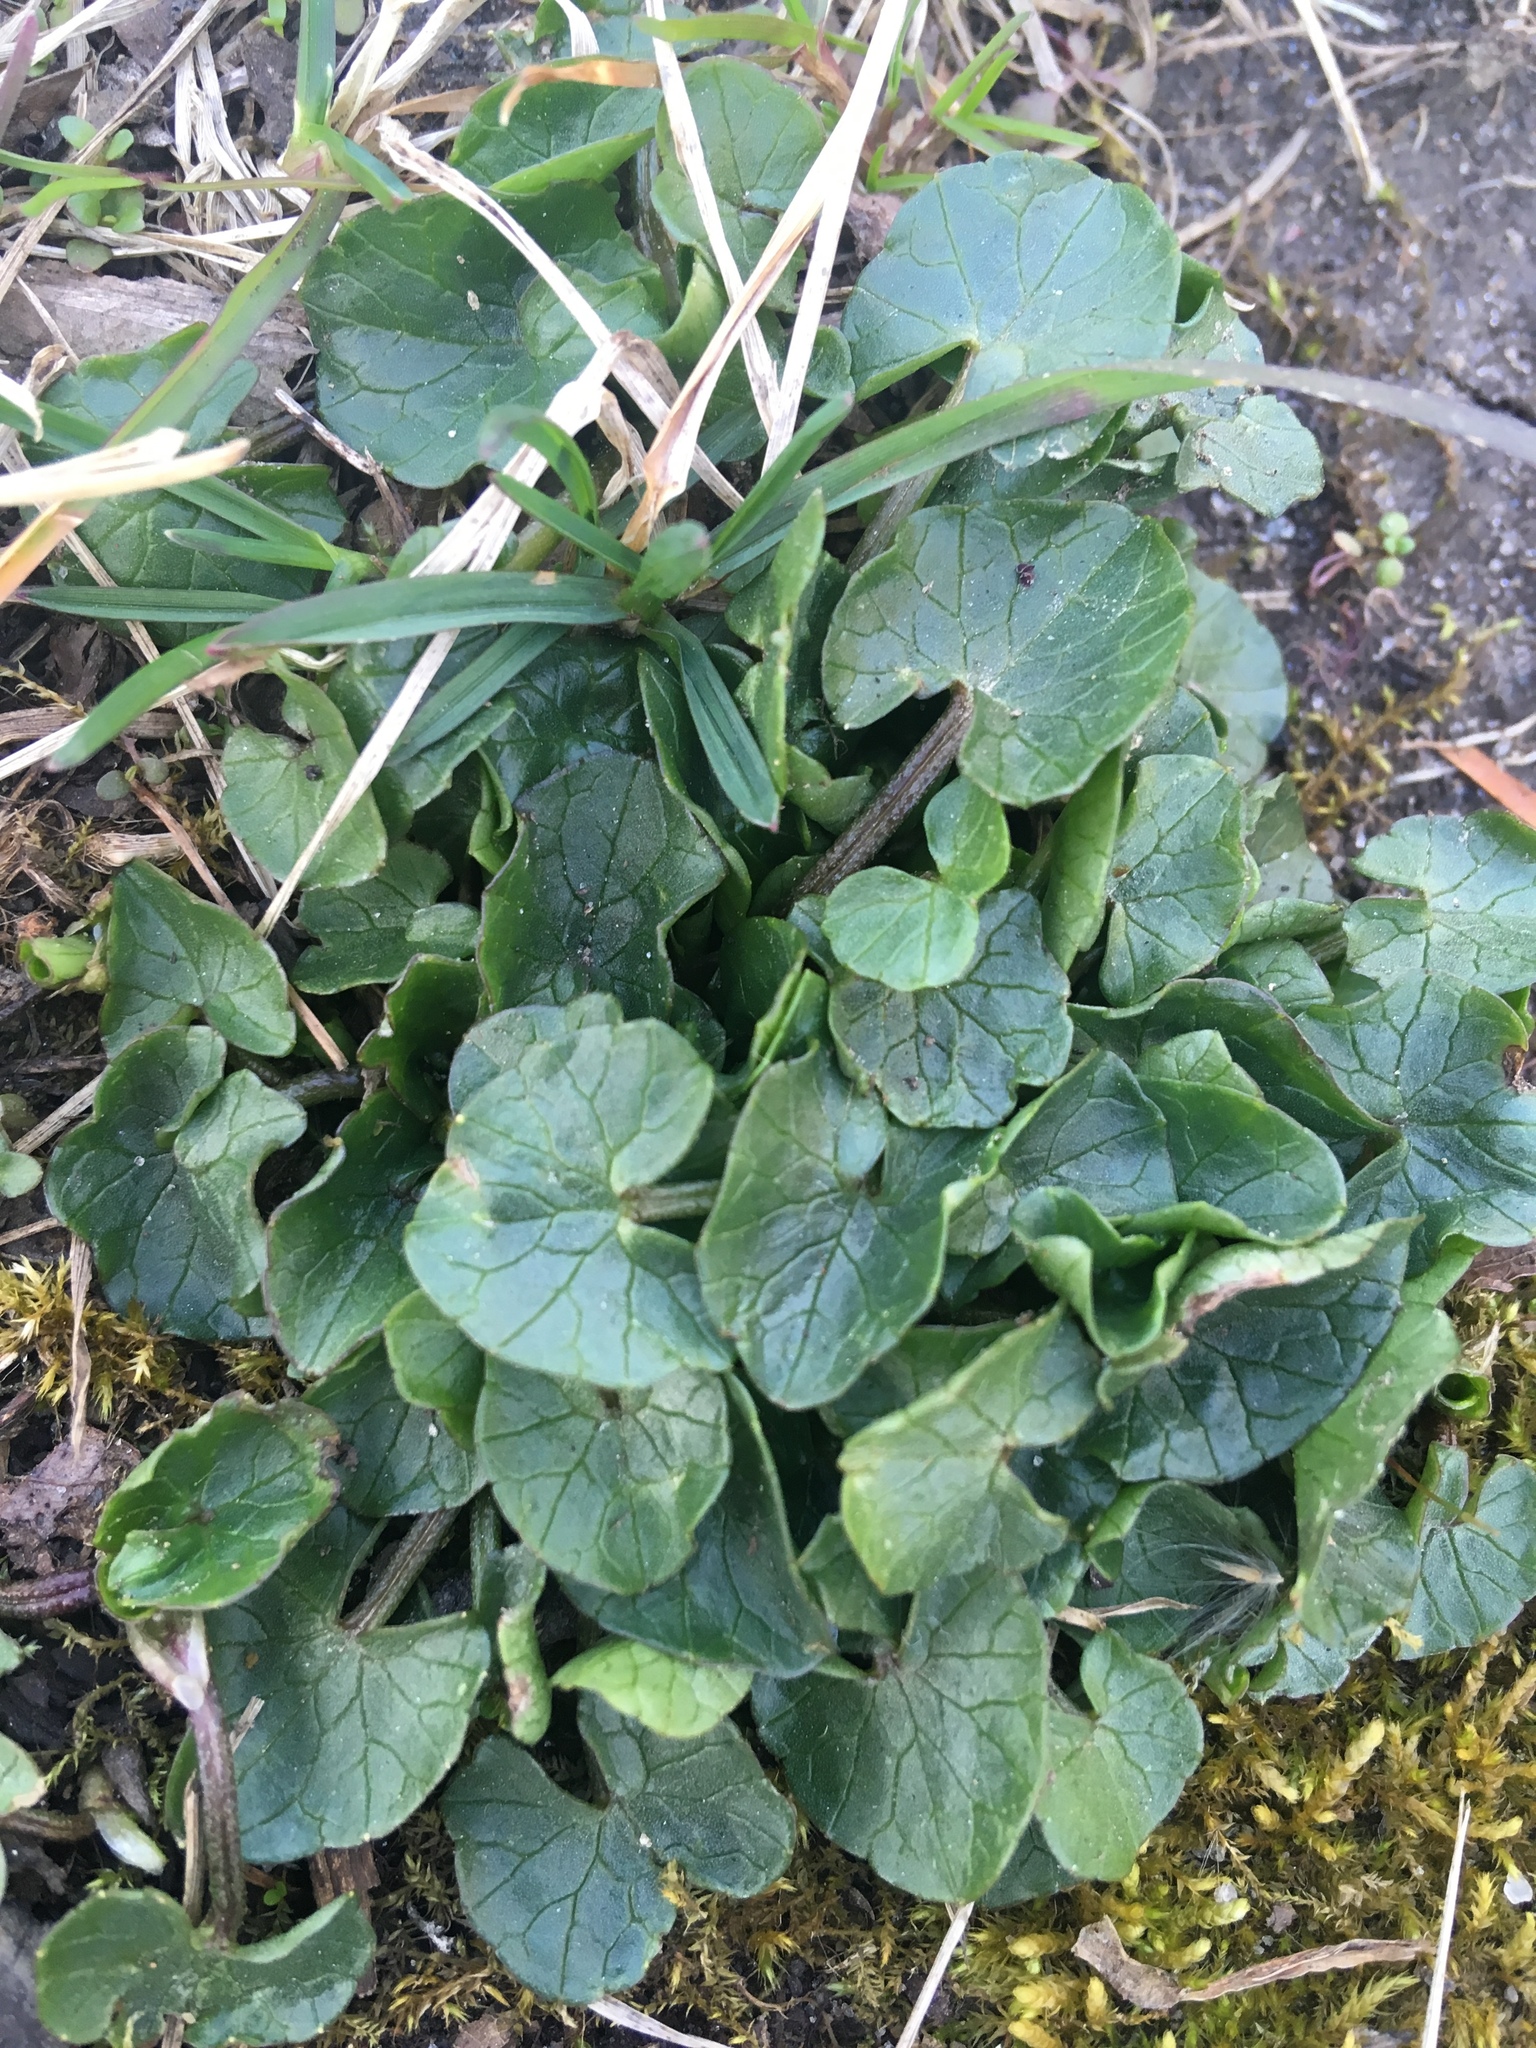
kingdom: Plantae
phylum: Tracheophyta
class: Magnoliopsida
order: Ranunculales
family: Ranunculaceae
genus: Ficaria
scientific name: Ficaria verna
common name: Lesser celandine
